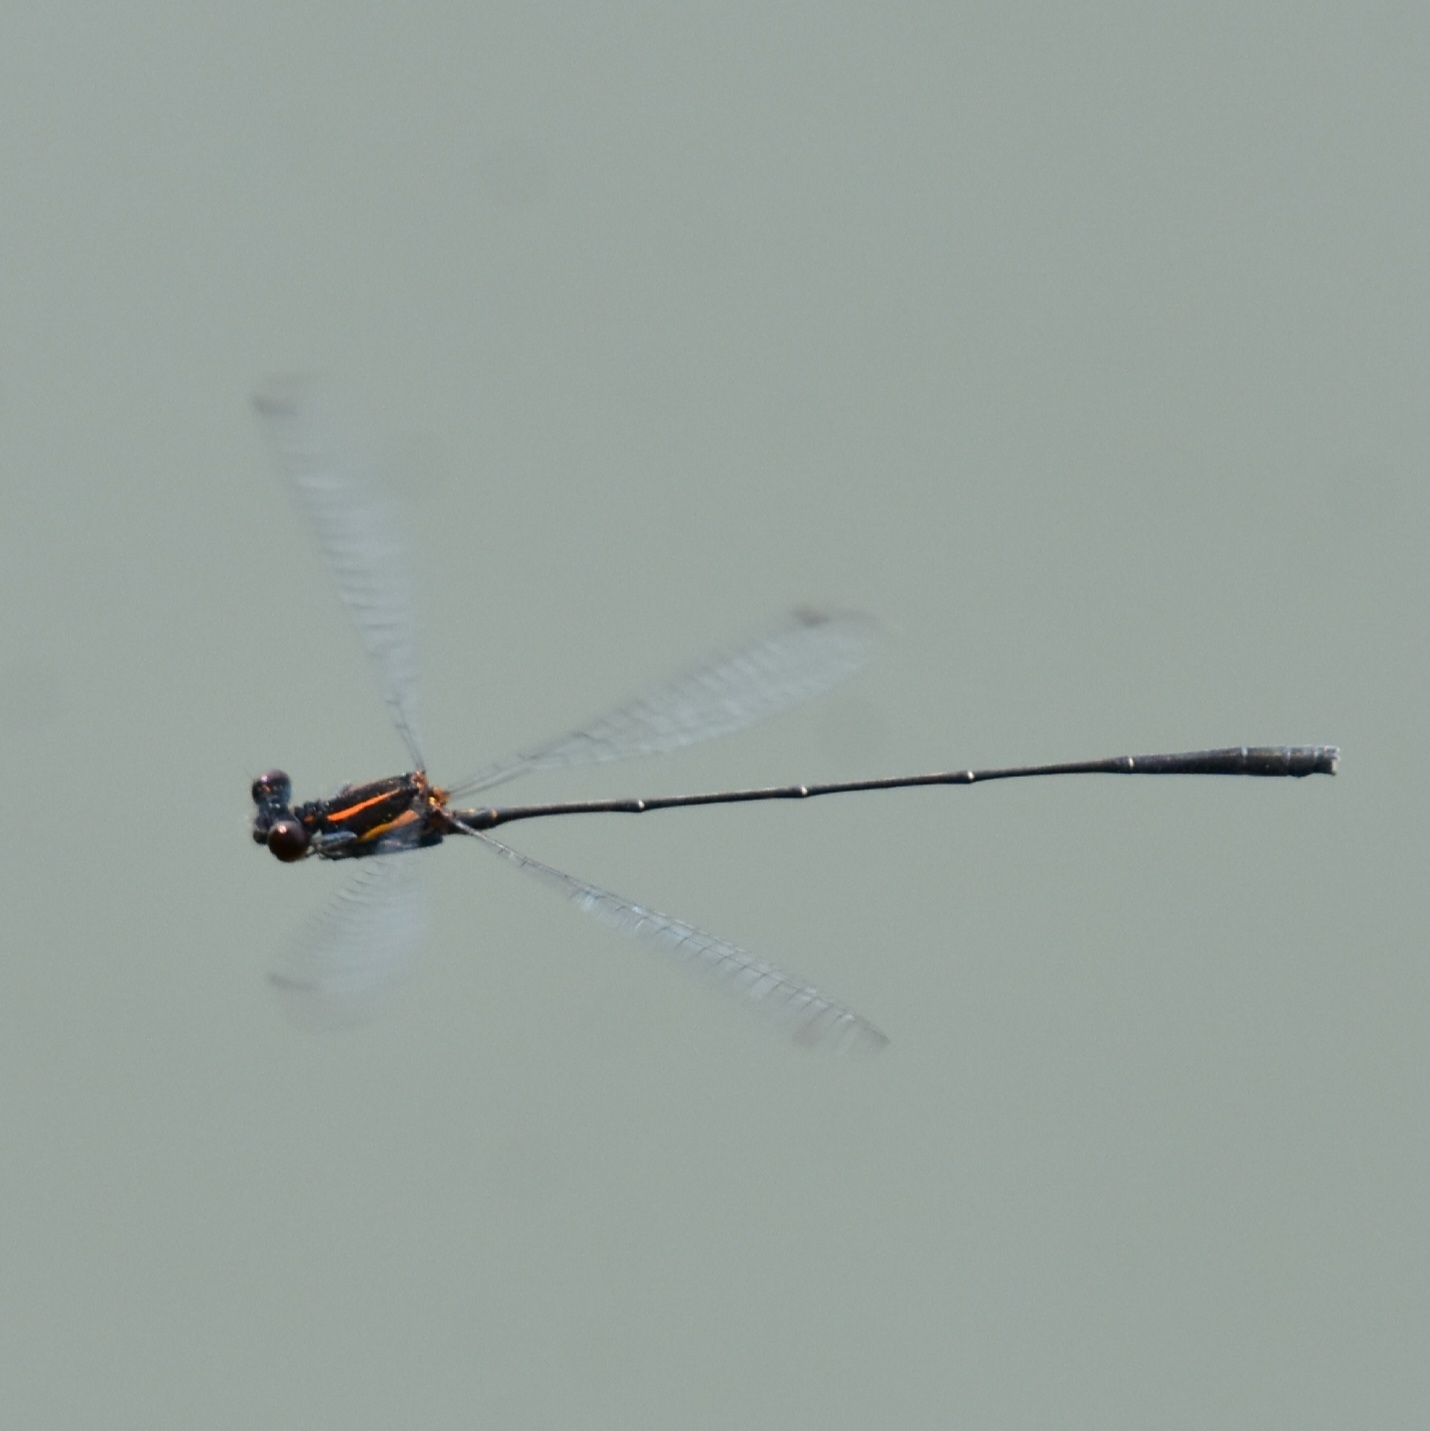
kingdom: Animalia
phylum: Arthropoda
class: Insecta
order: Odonata
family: Platycnemididae
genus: Prodasineura
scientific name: Prodasineura verticalis
